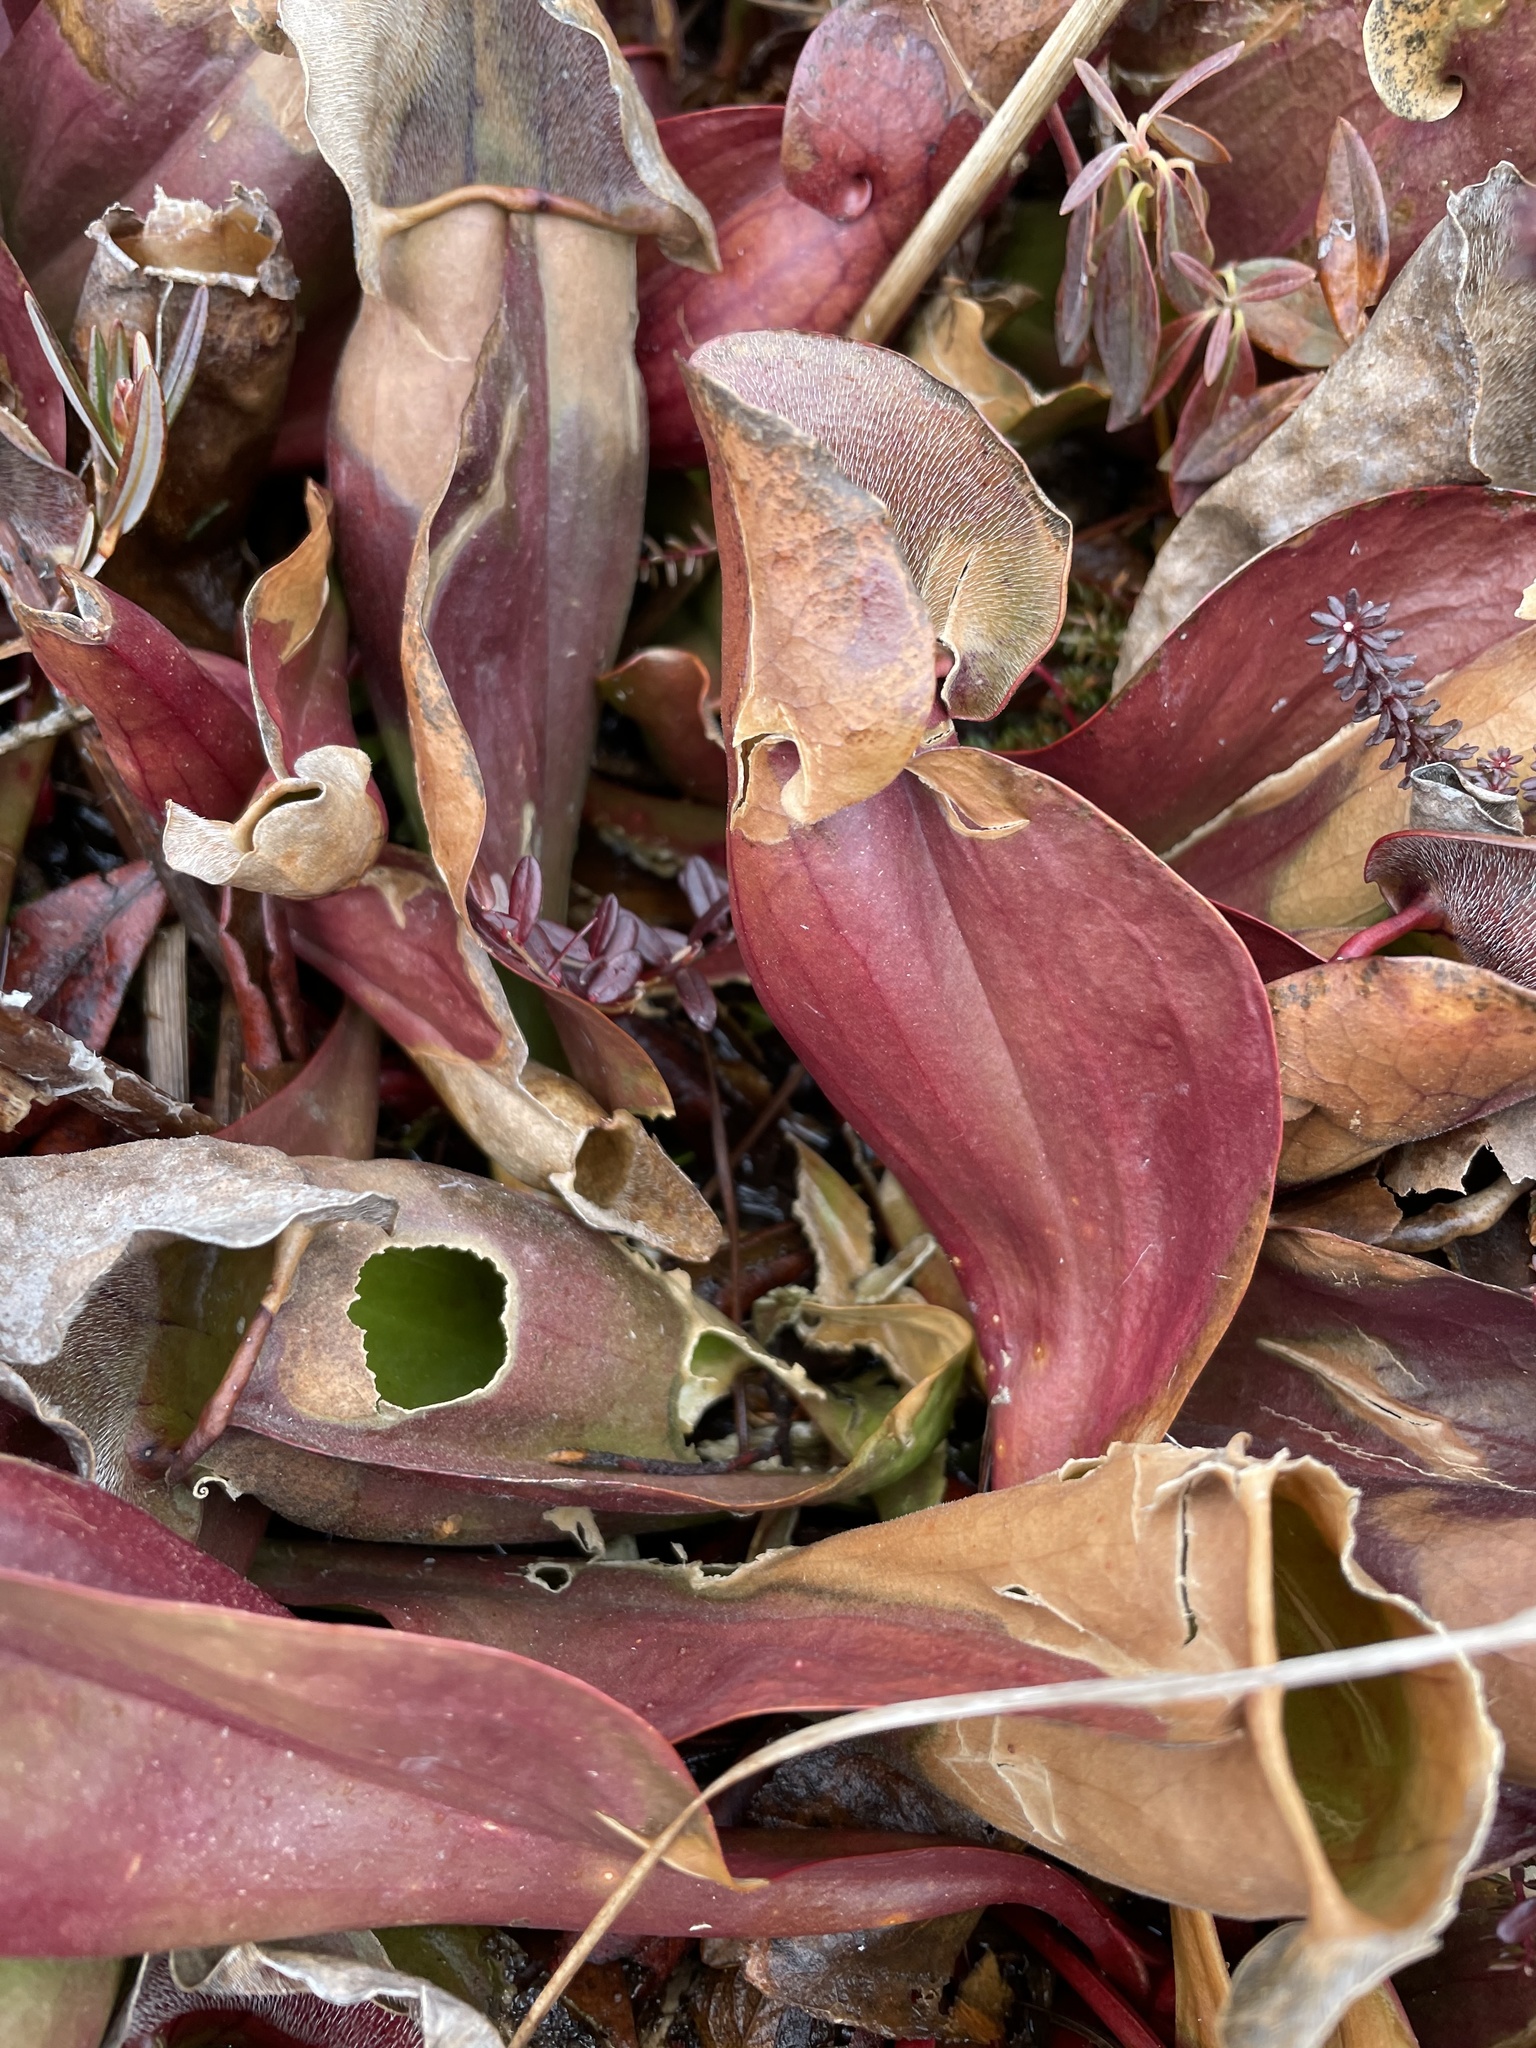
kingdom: Plantae
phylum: Tracheophyta
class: Magnoliopsida
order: Ericales
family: Sarraceniaceae
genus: Sarracenia
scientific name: Sarracenia purpurea
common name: Pitcherplant
